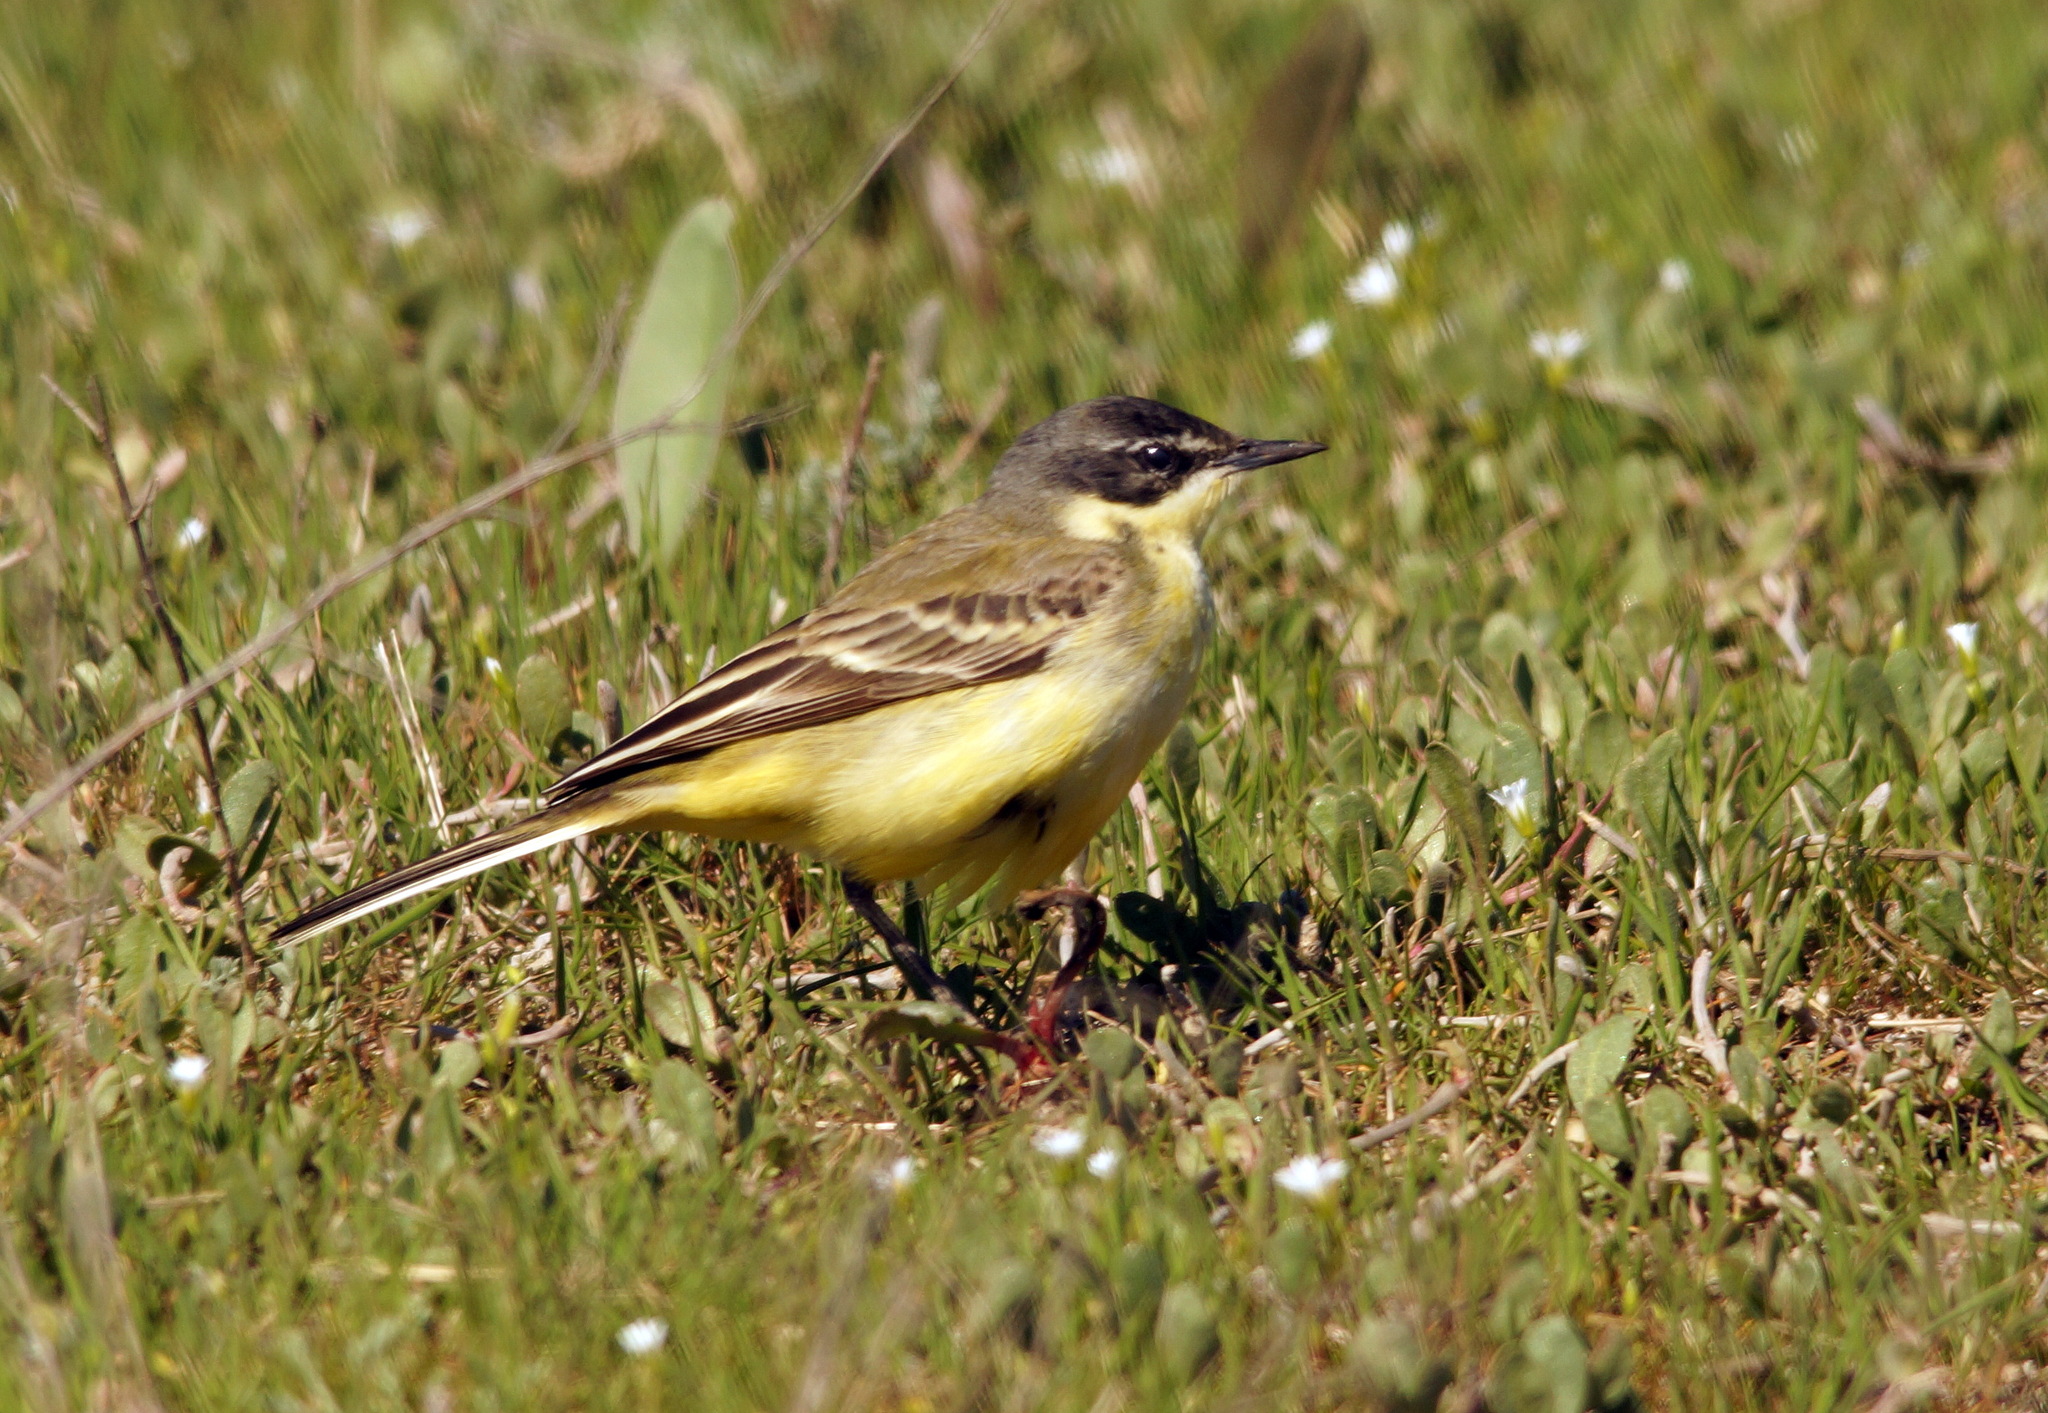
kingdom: Animalia
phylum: Chordata
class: Aves
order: Passeriformes
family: Motacillidae
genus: Motacilla
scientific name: Motacilla flava
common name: Western yellow wagtail
